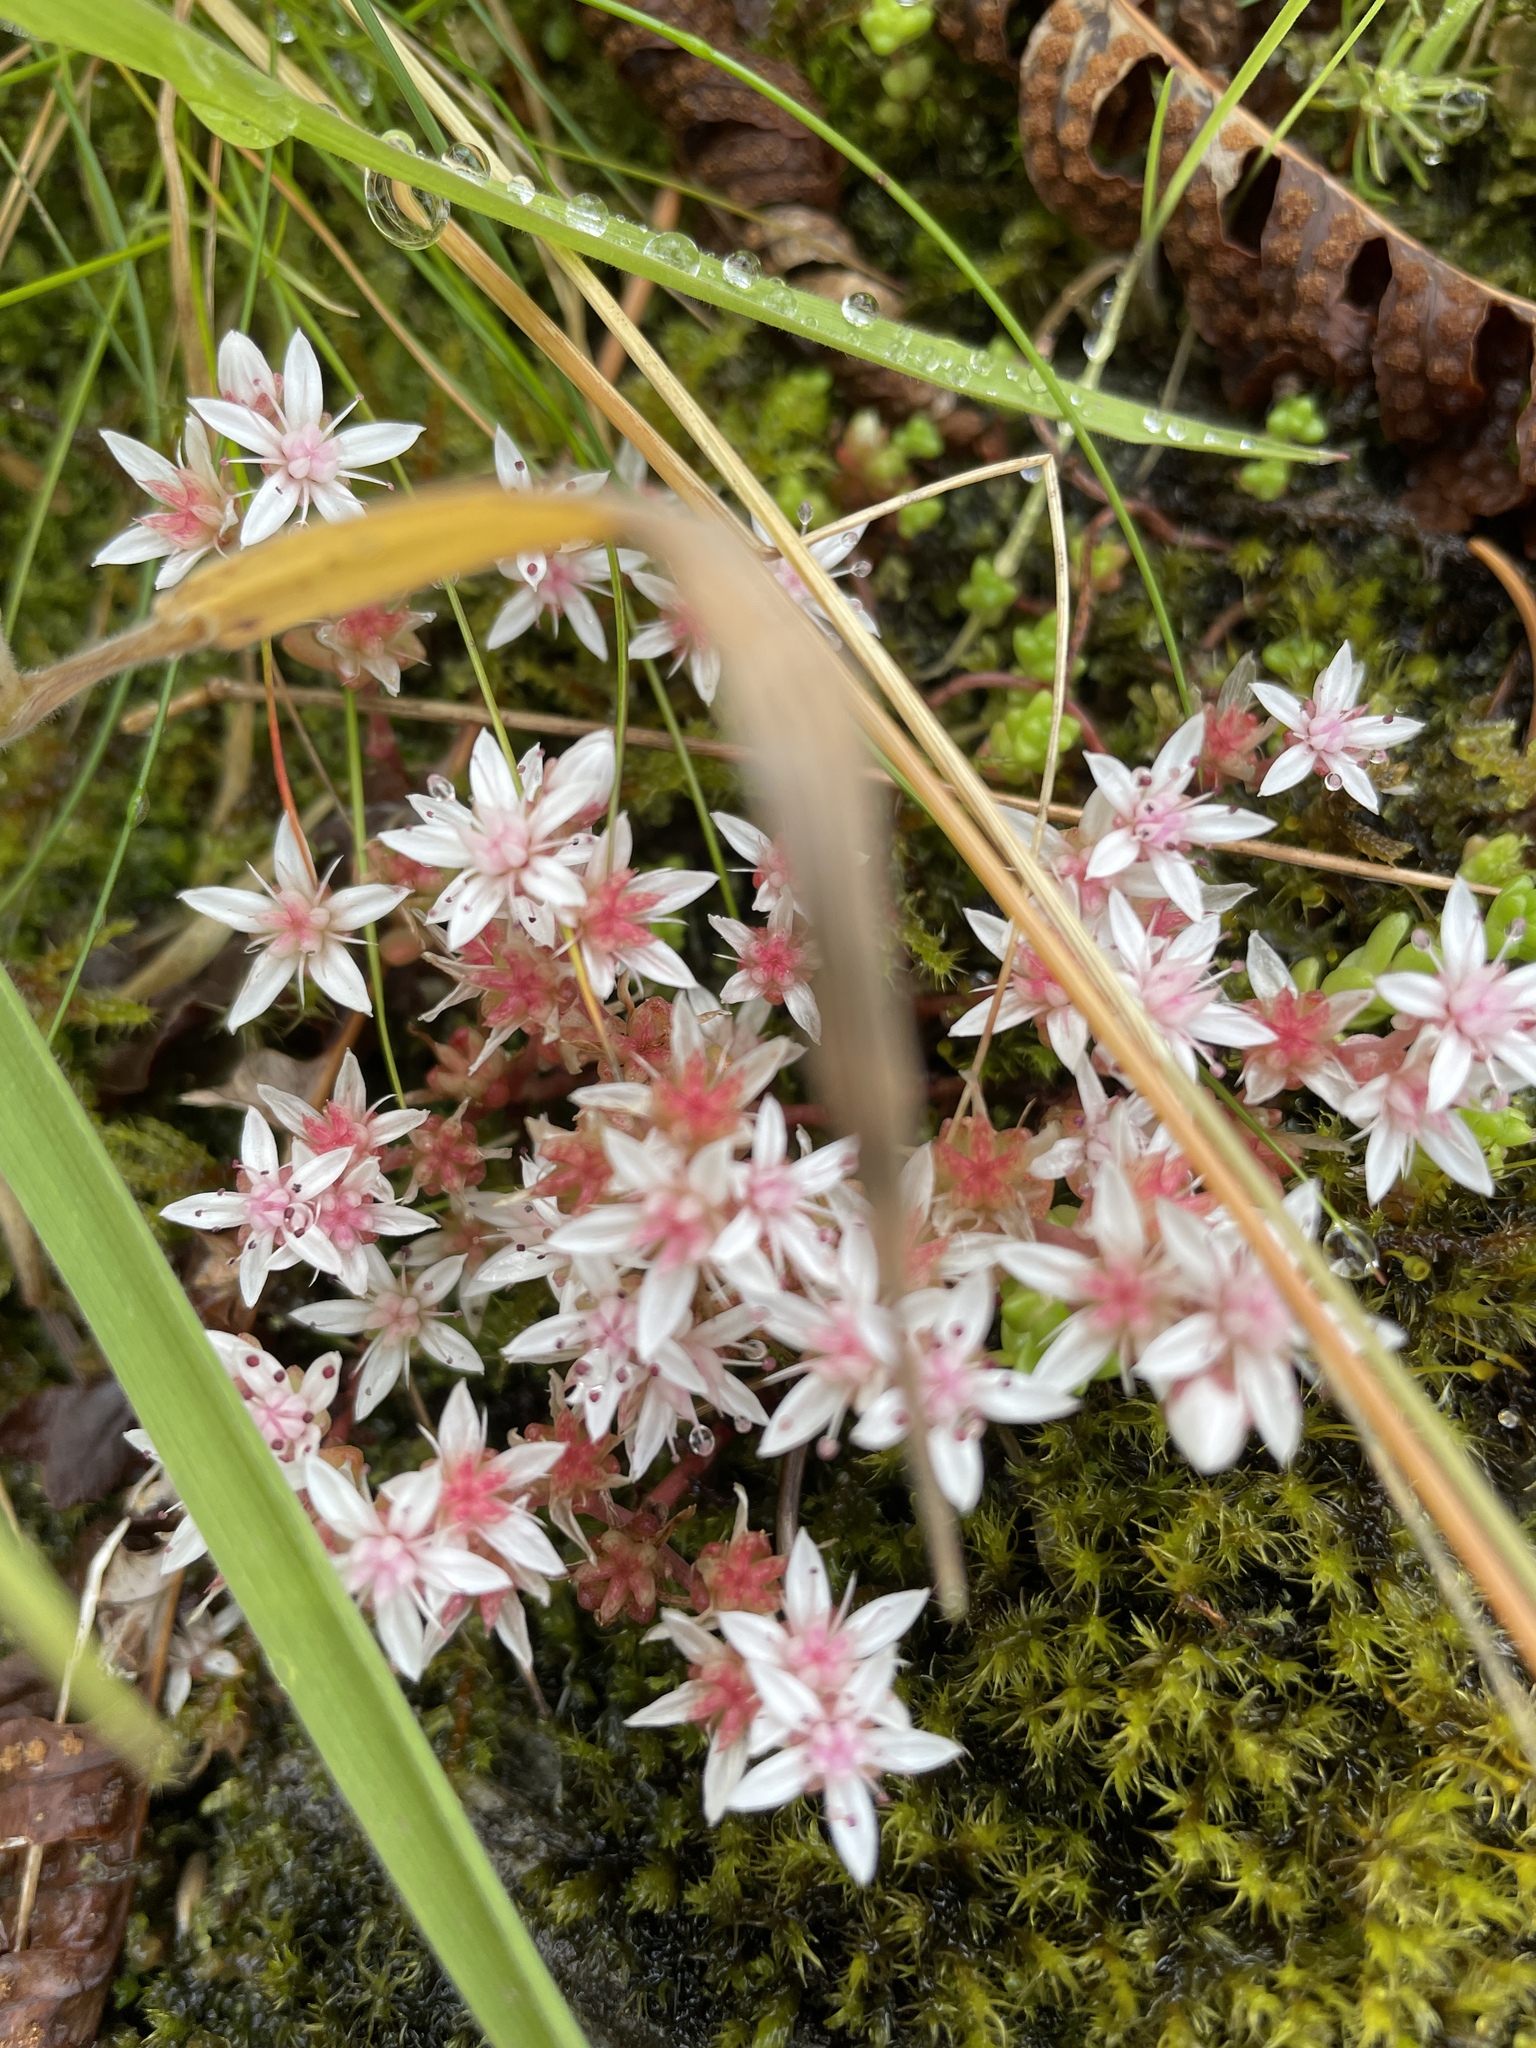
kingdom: Plantae
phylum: Tracheophyta
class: Magnoliopsida
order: Saxifragales
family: Crassulaceae
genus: Sedum
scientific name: Sedum anglicum
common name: English stonecrop
